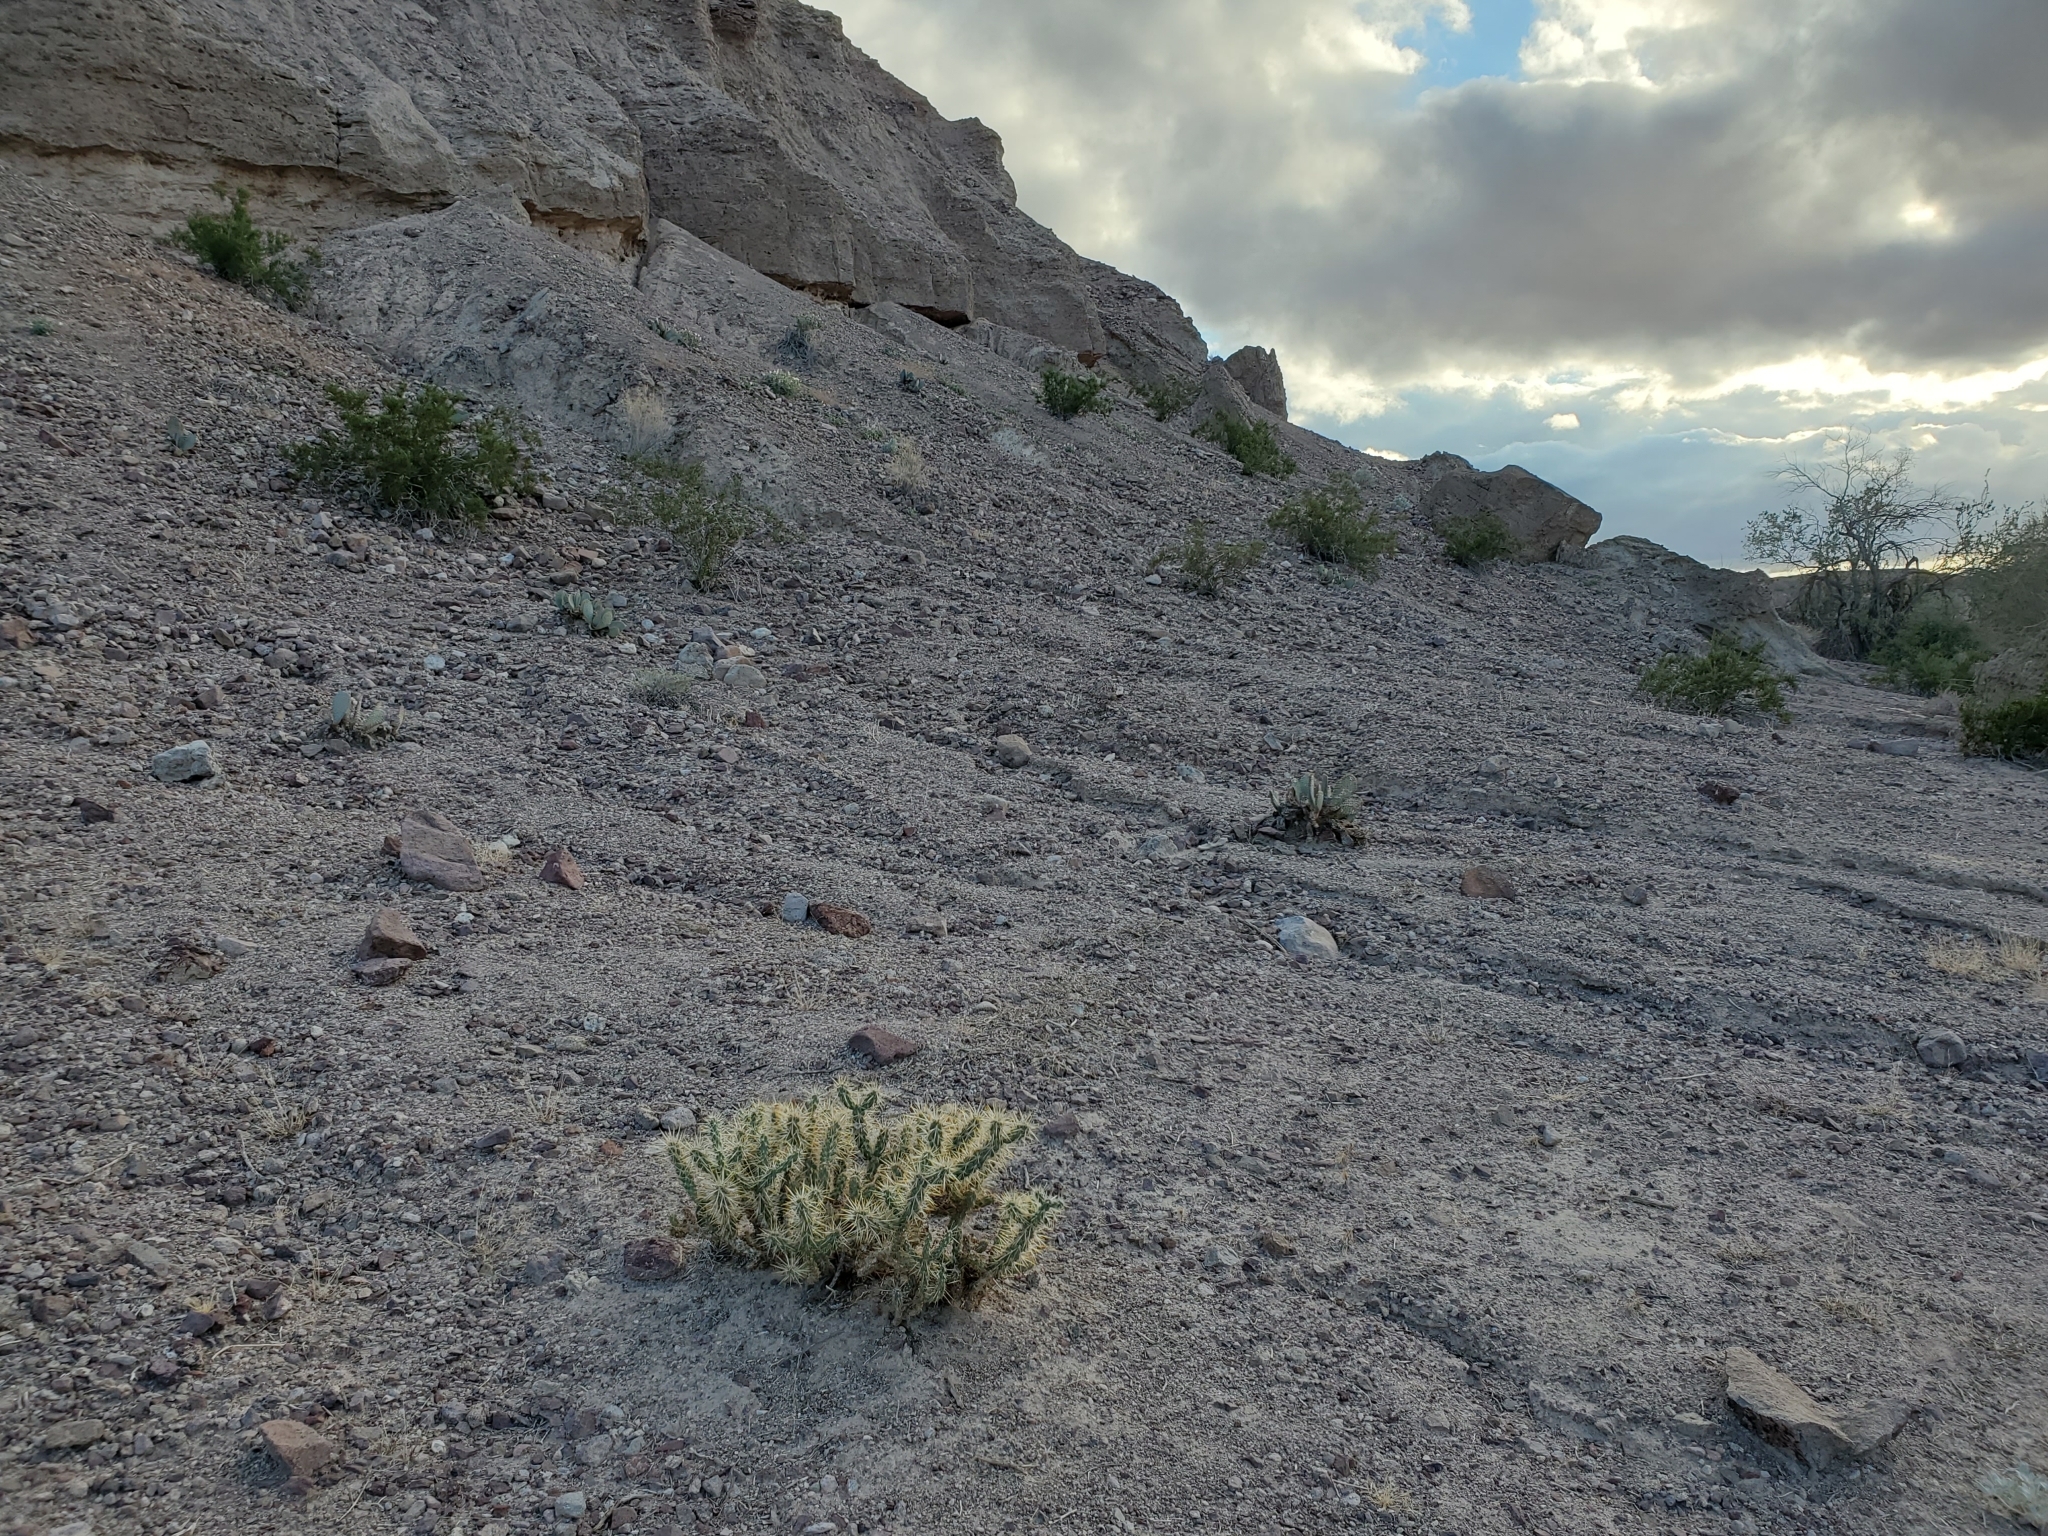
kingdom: Plantae
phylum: Tracheophyta
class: Magnoliopsida
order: Caryophyllales
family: Cactaceae
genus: Cylindropuntia
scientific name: Cylindropuntia echinocarpa
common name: Ground cholla
